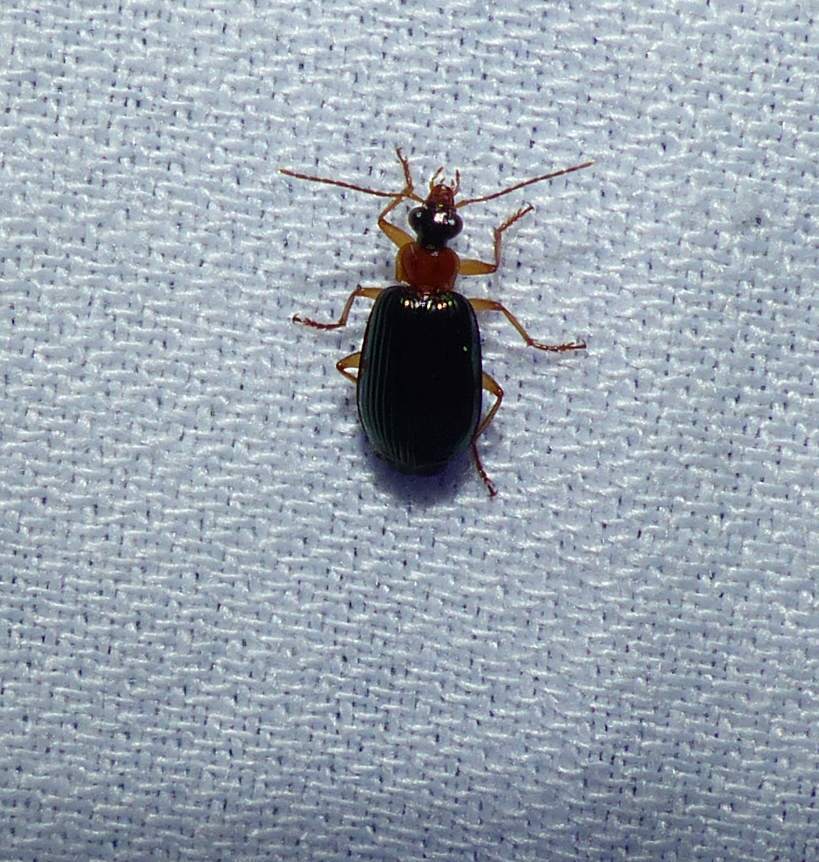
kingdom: Animalia
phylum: Arthropoda
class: Insecta
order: Coleoptera
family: Carabidae
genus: Lebia
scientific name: Lebia tricolor
